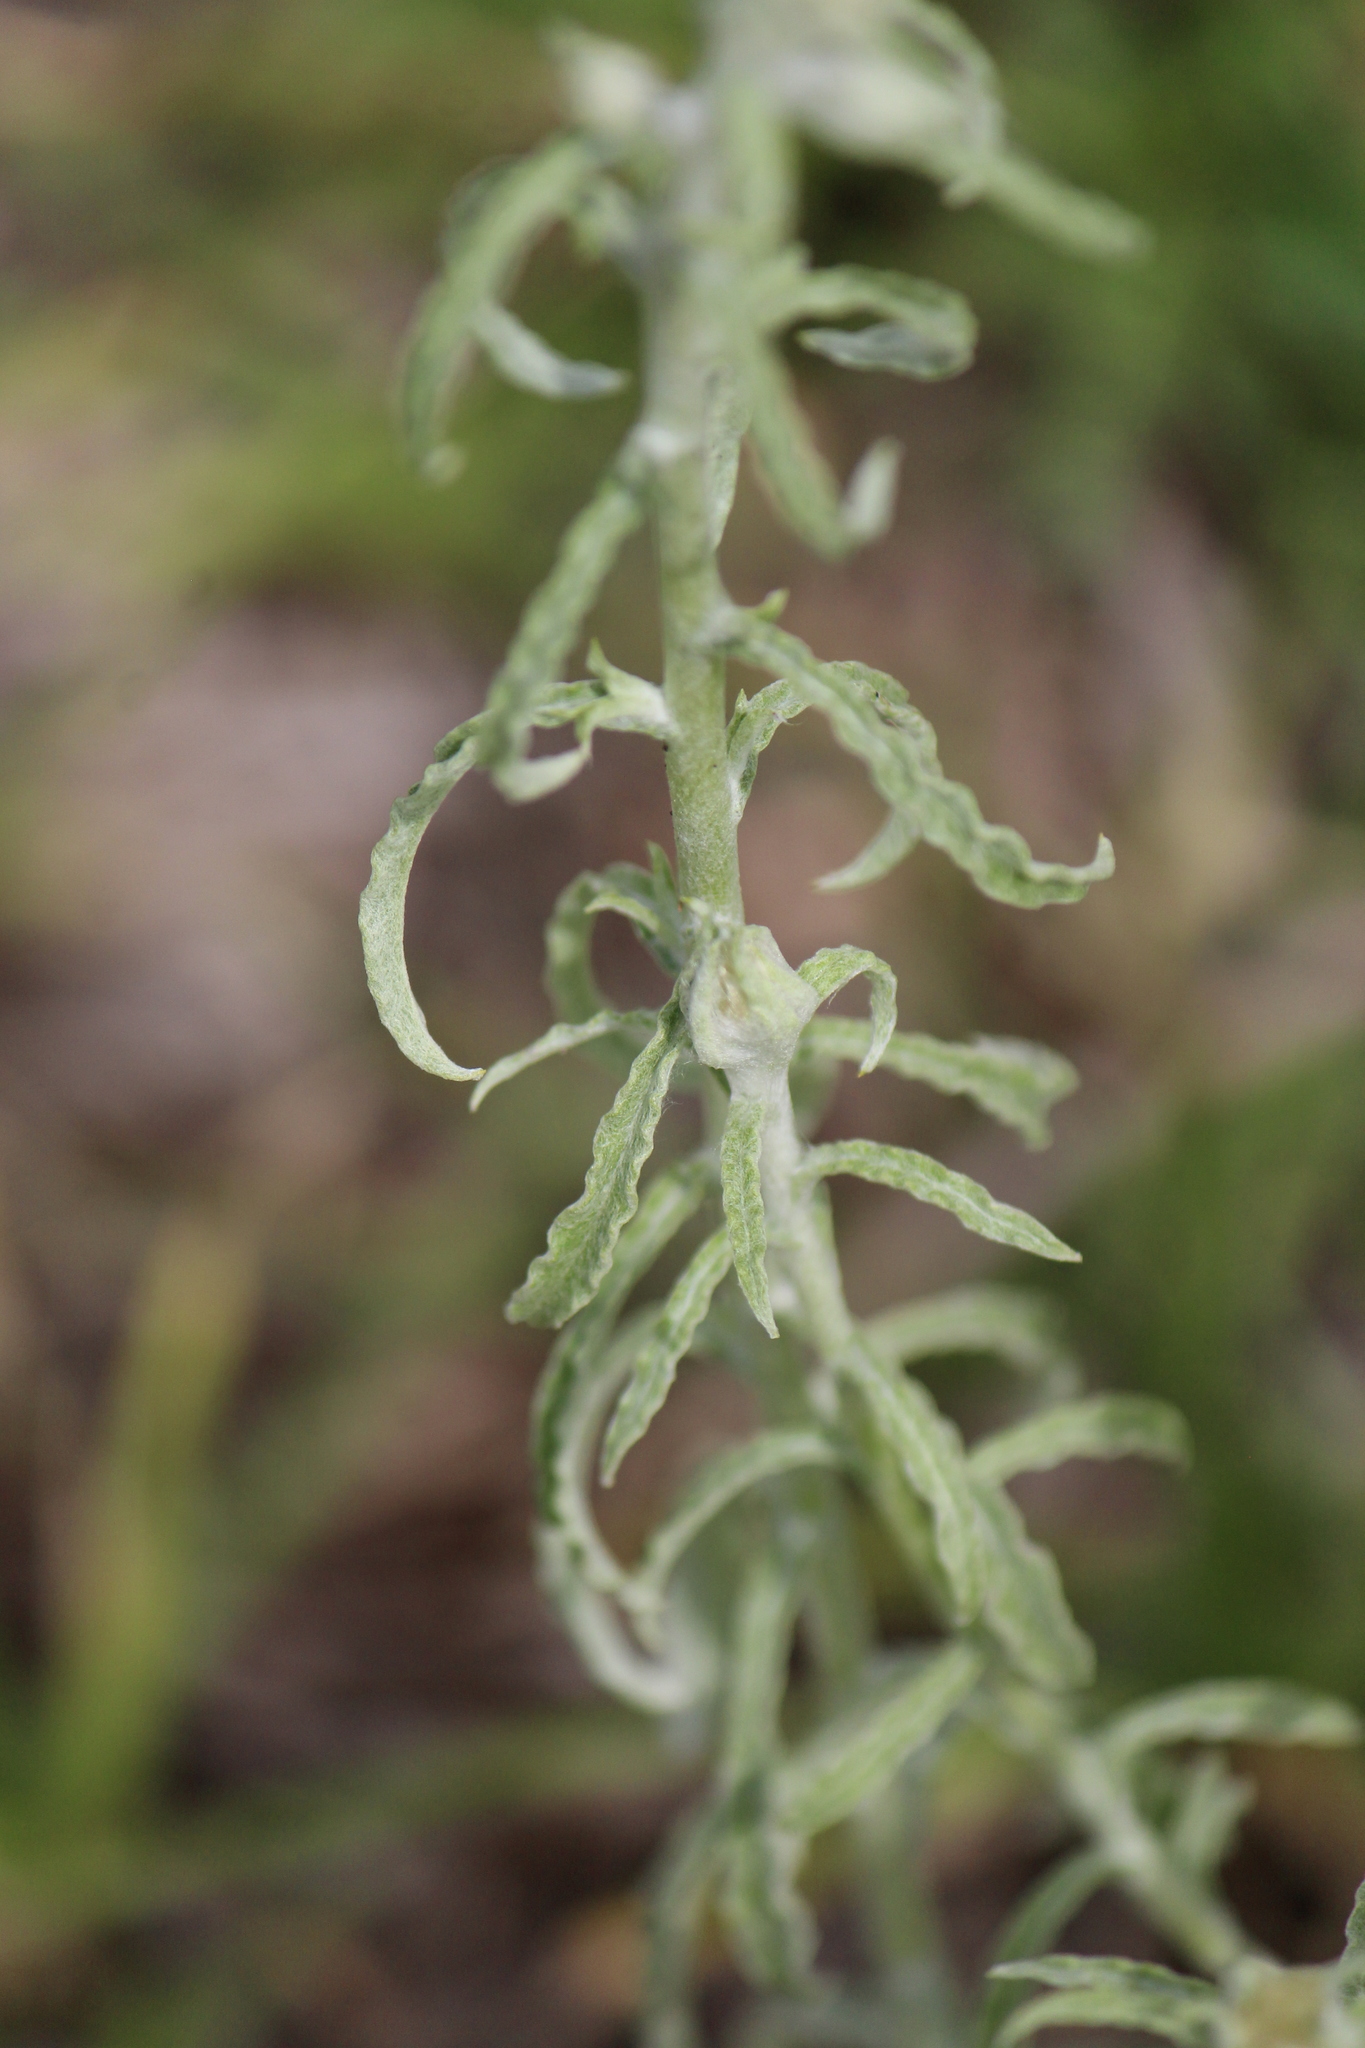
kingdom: Plantae
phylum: Tracheophyta
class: Magnoliopsida
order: Asterales
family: Asteraceae
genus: Pseudognaphalium
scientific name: Pseudognaphalium inornatum
